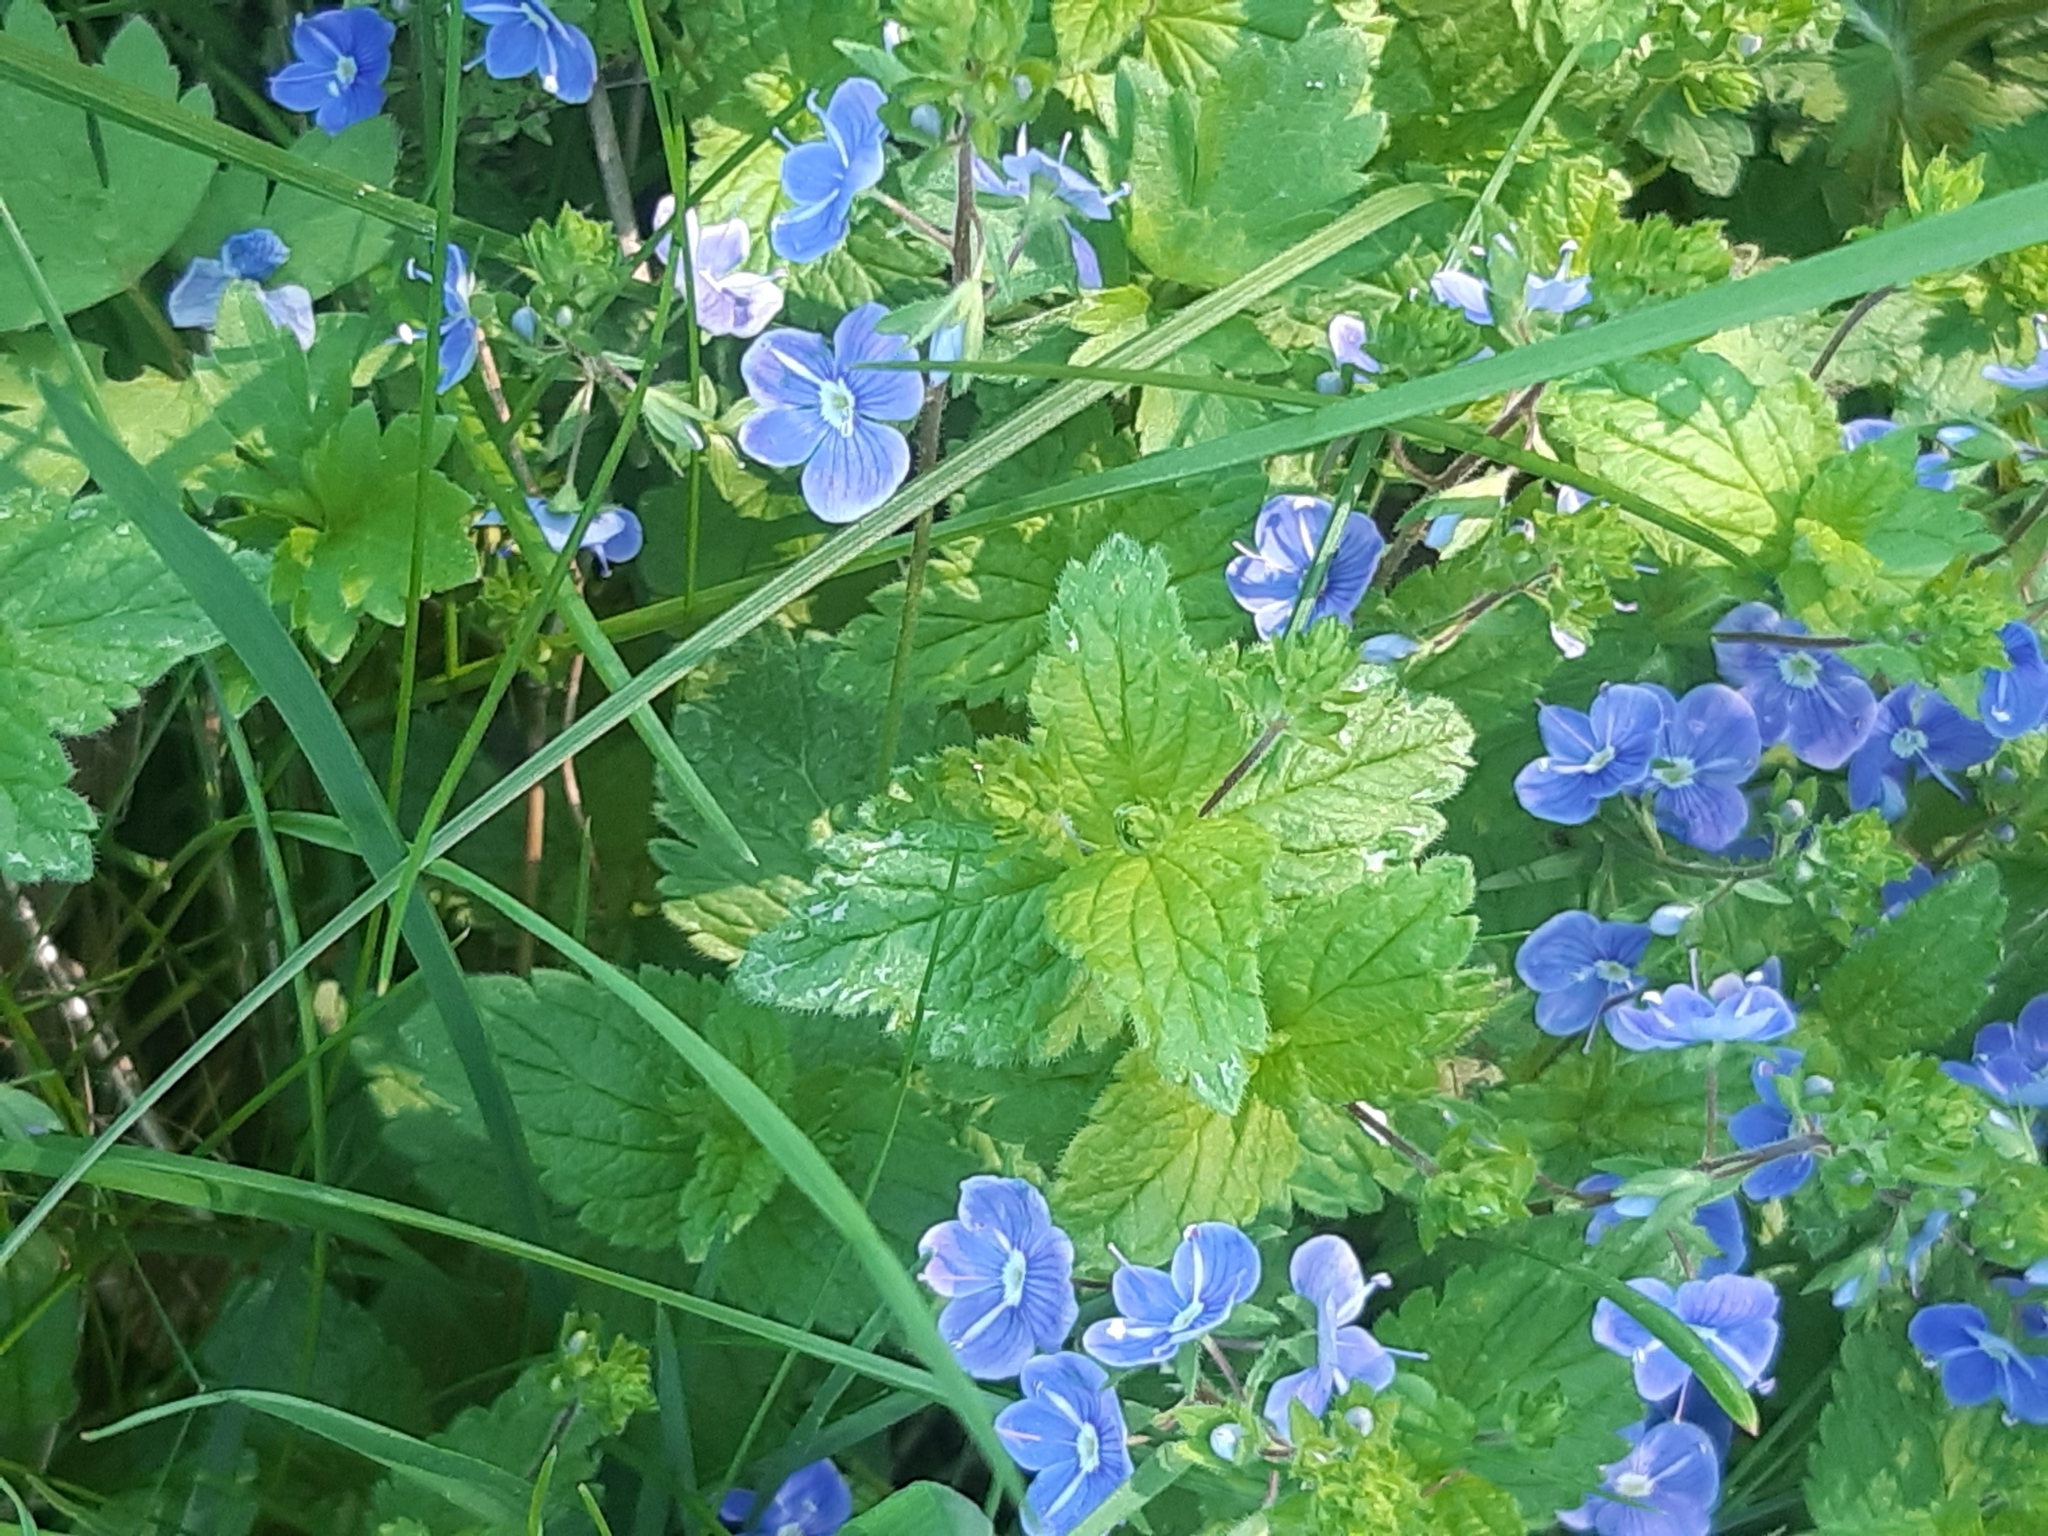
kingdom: Plantae
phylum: Tracheophyta
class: Magnoliopsida
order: Lamiales
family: Plantaginaceae
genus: Veronica
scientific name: Veronica chamaedrys
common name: Germander speedwell
